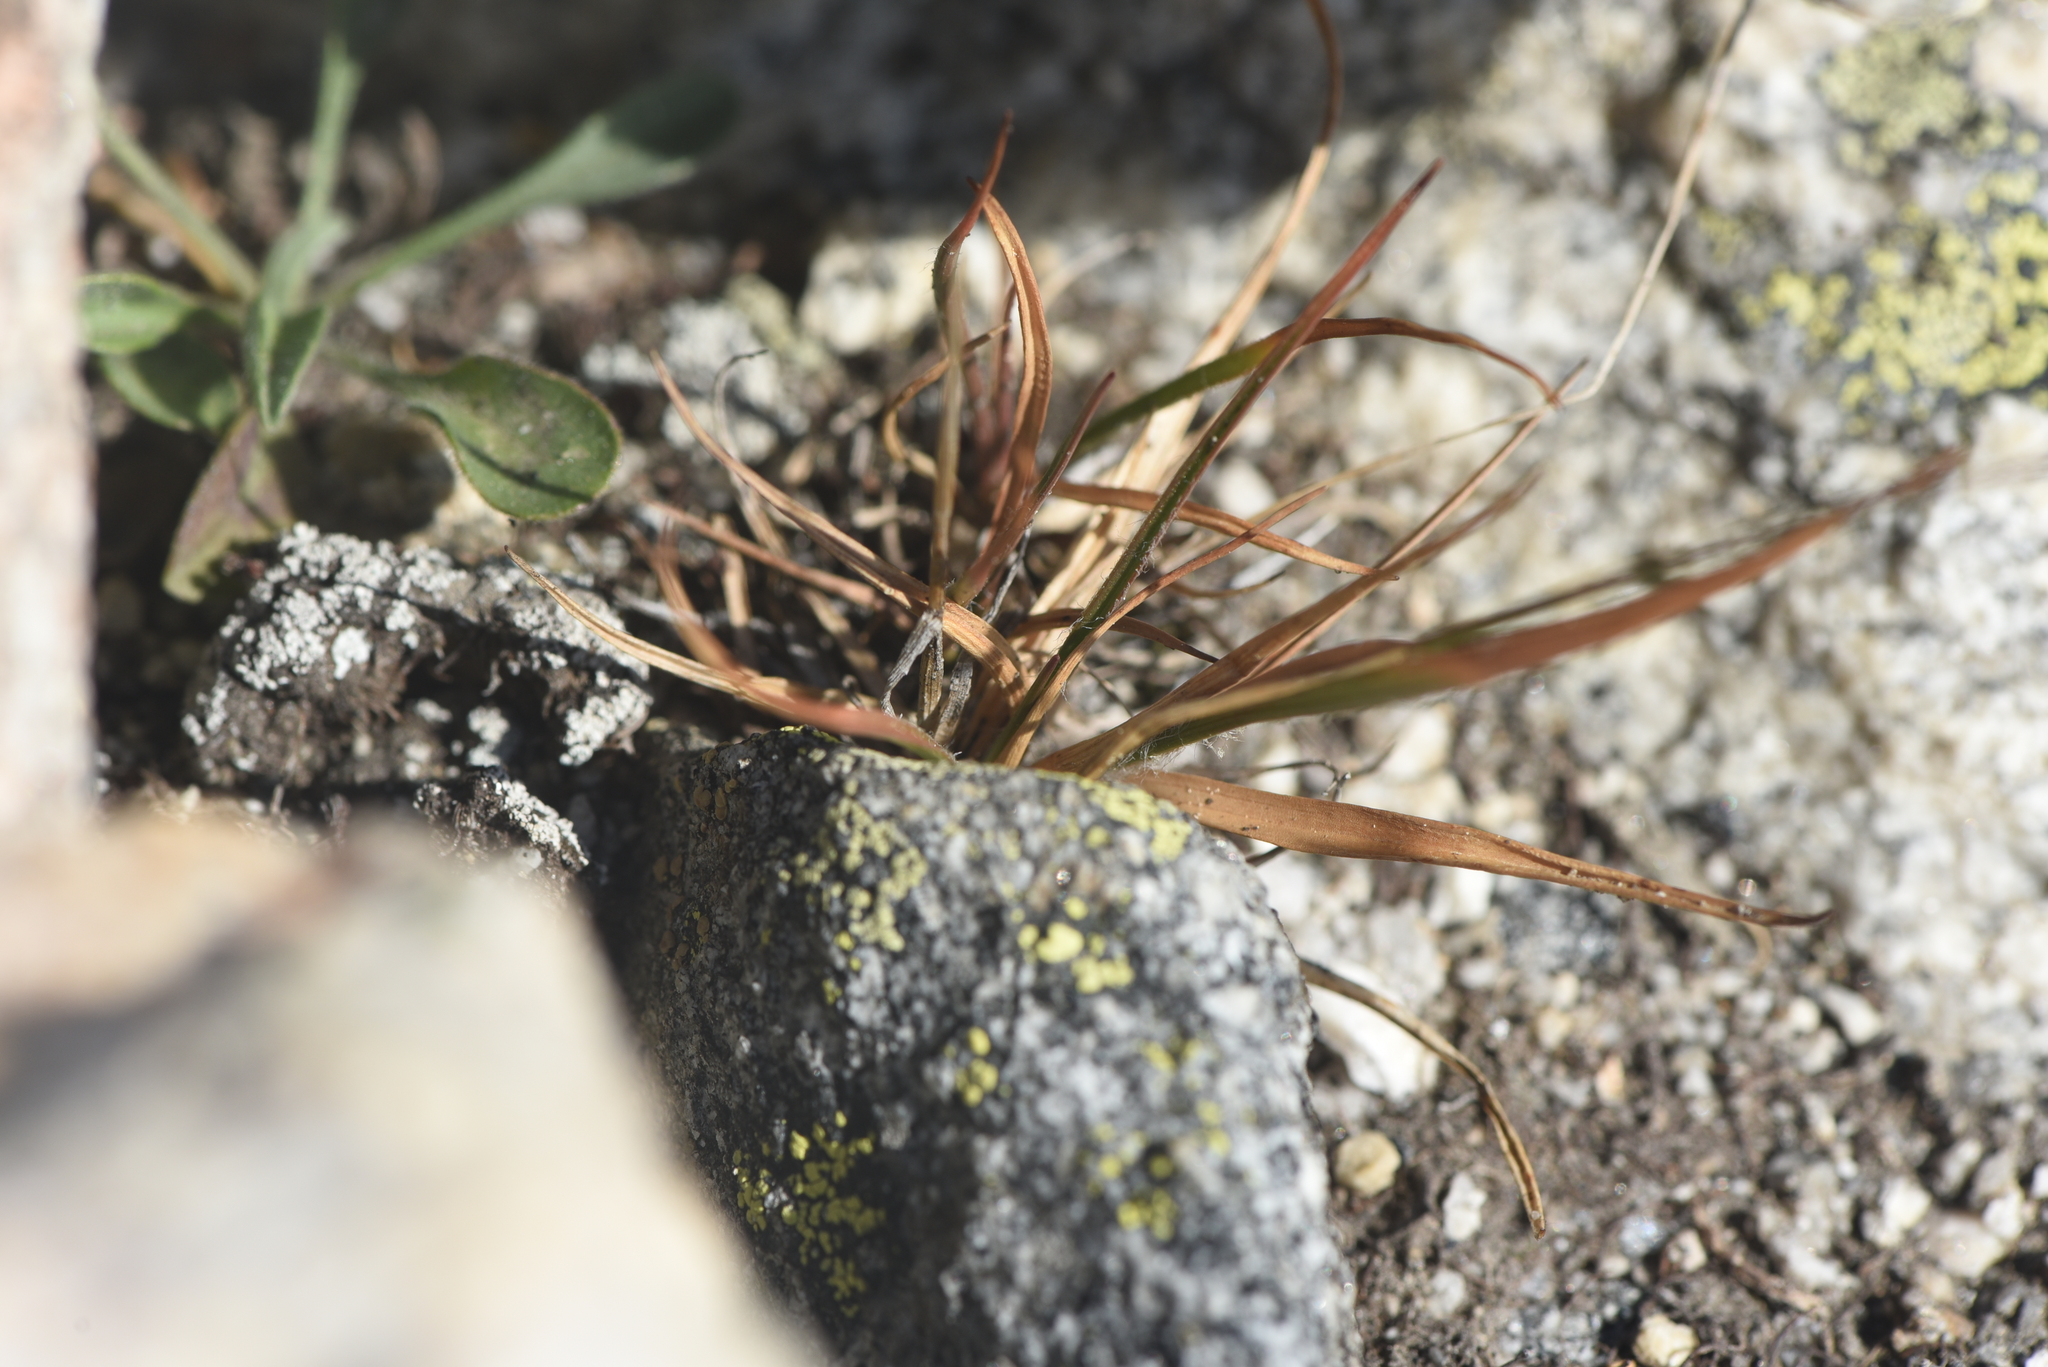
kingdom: Plantae
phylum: Tracheophyta
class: Liliopsida
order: Poales
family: Juncaceae
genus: Luzula
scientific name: Luzula spicata
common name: Spiked wood-rush
